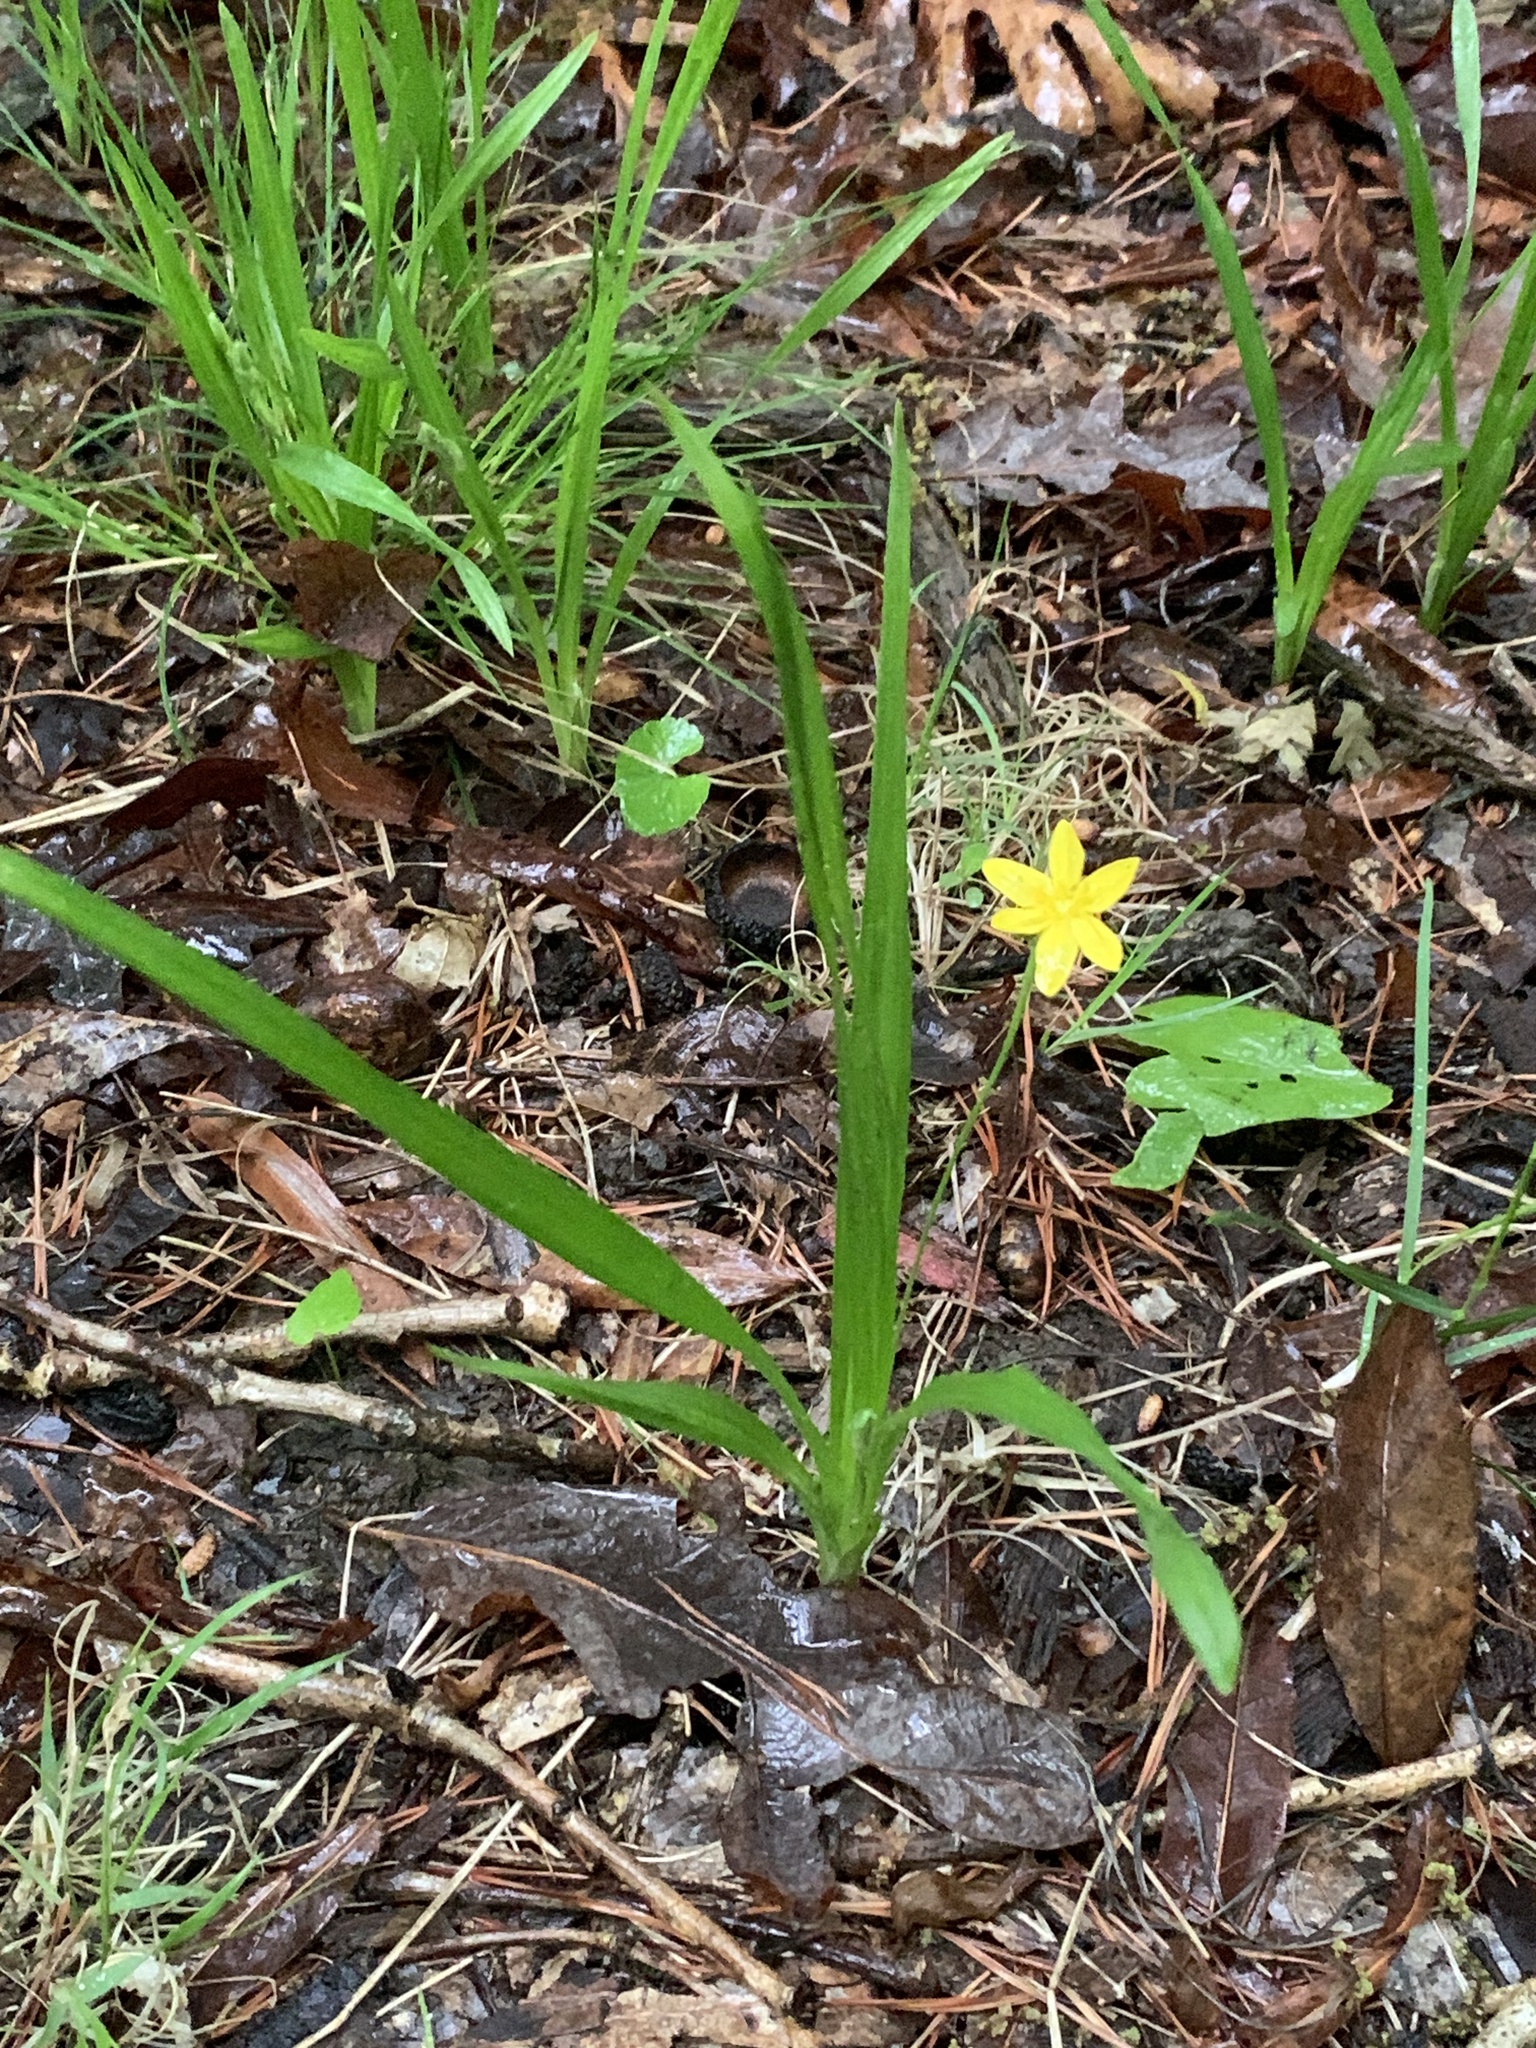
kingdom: Plantae
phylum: Tracheophyta
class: Liliopsida
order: Asparagales
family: Hypoxidaceae
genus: Hypoxis
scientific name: Hypoxis hirsuta
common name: Common goldstar
